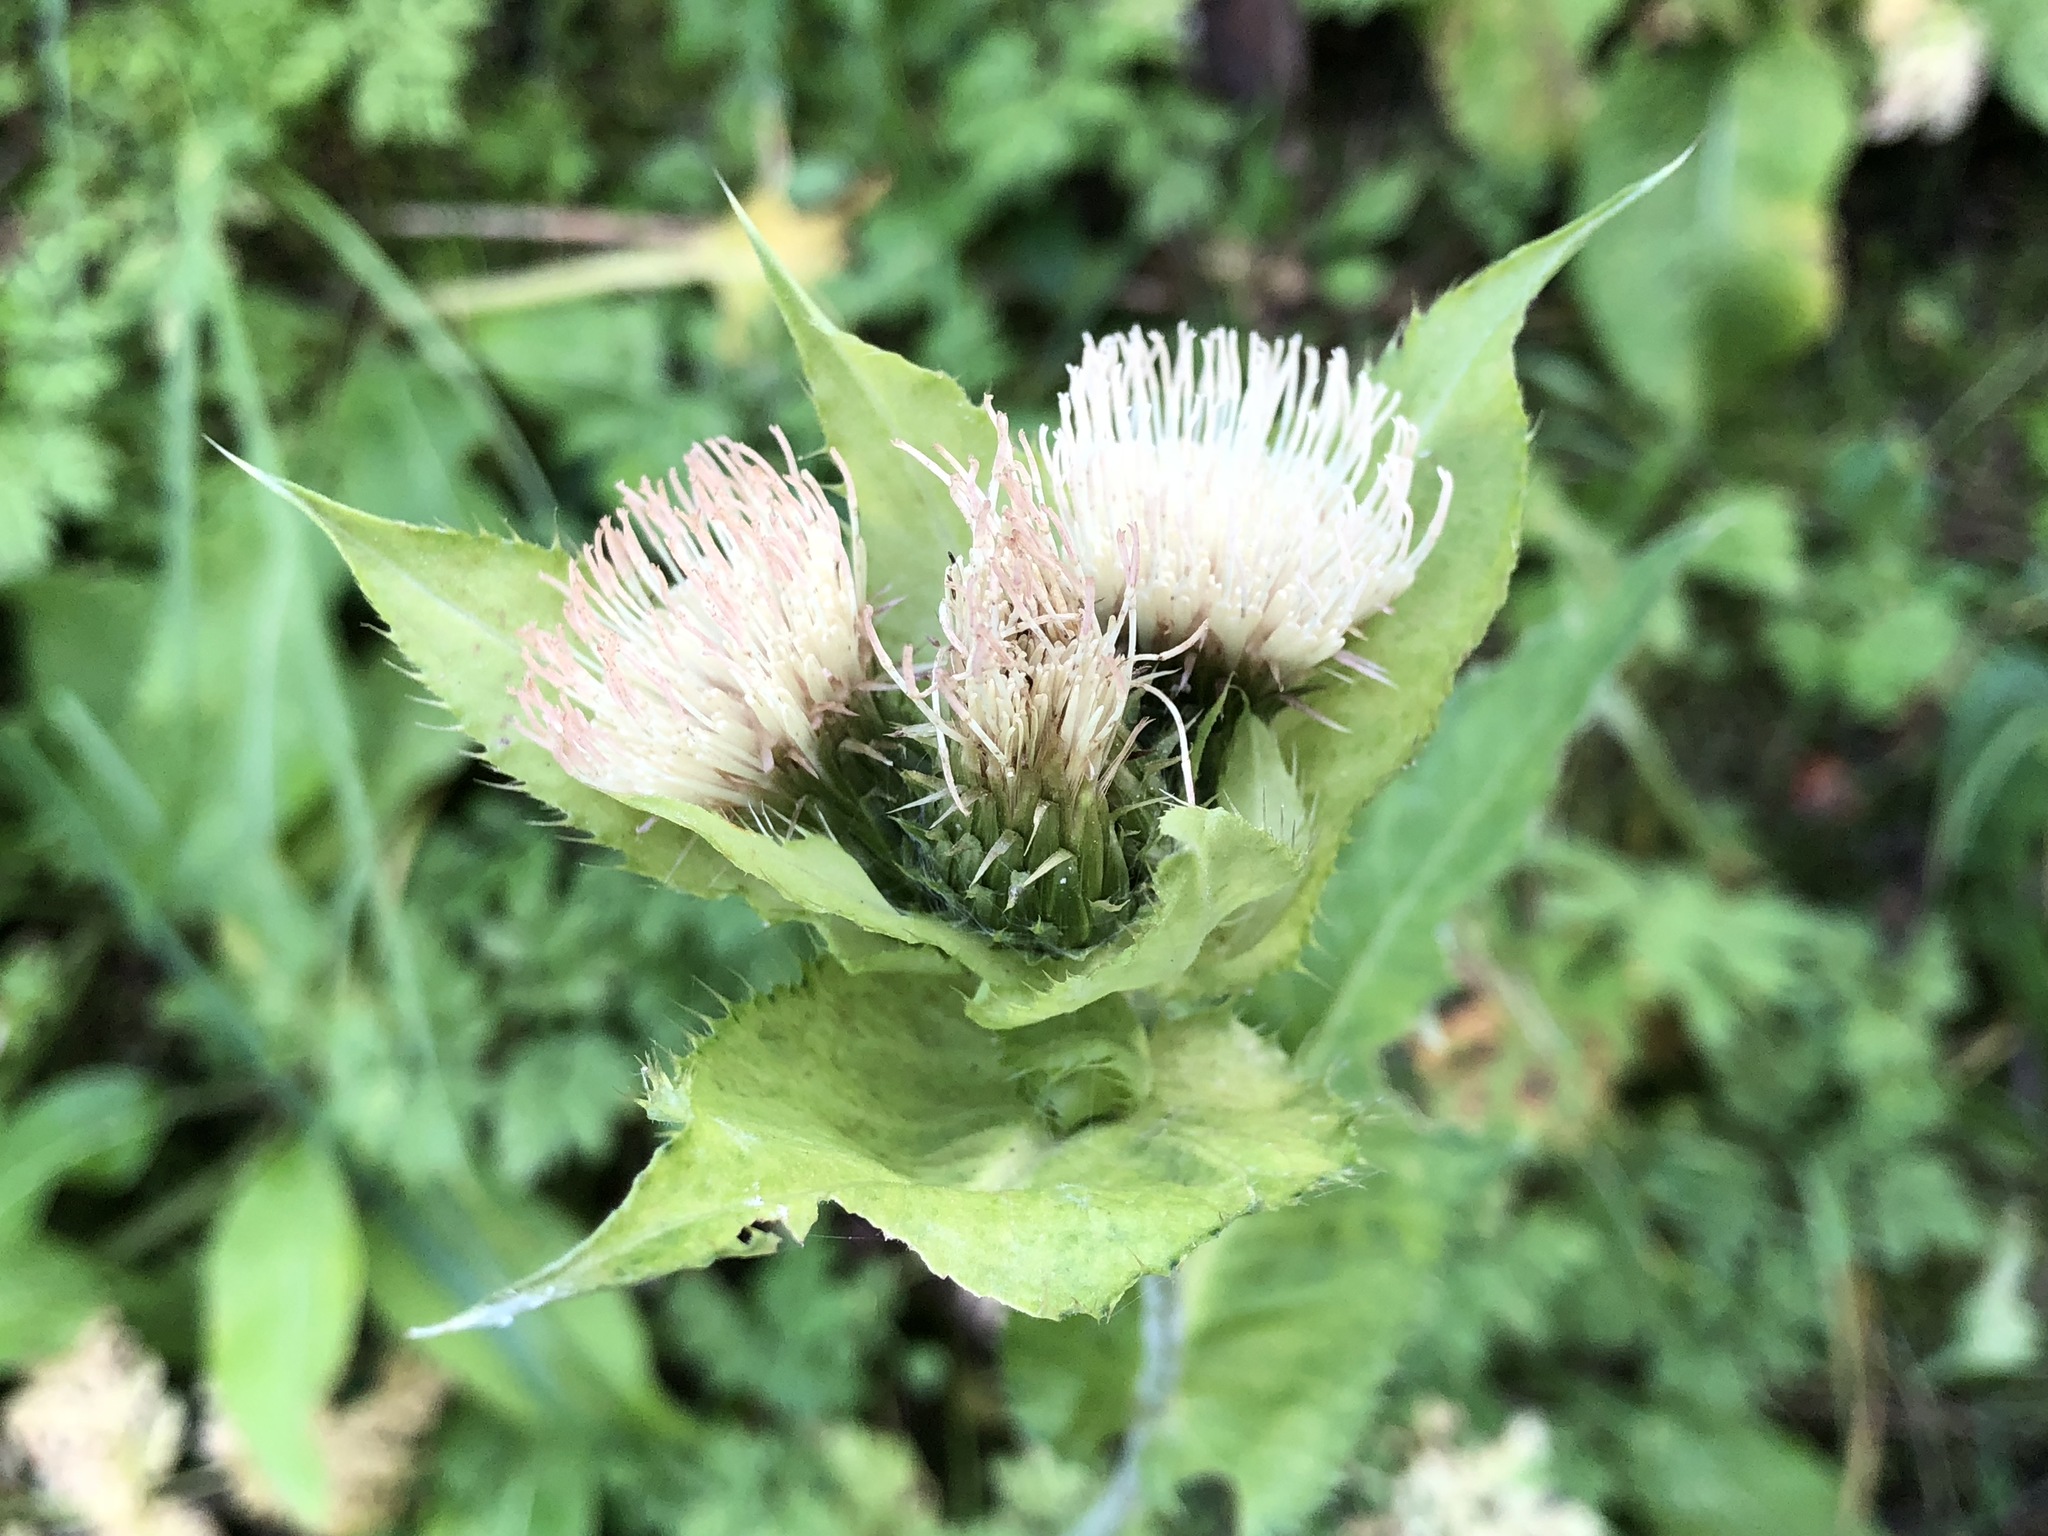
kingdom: Plantae
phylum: Tracheophyta
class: Magnoliopsida
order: Asterales
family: Asteraceae
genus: Cirsium
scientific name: Cirsium oleraceum
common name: Cabbage thistle
